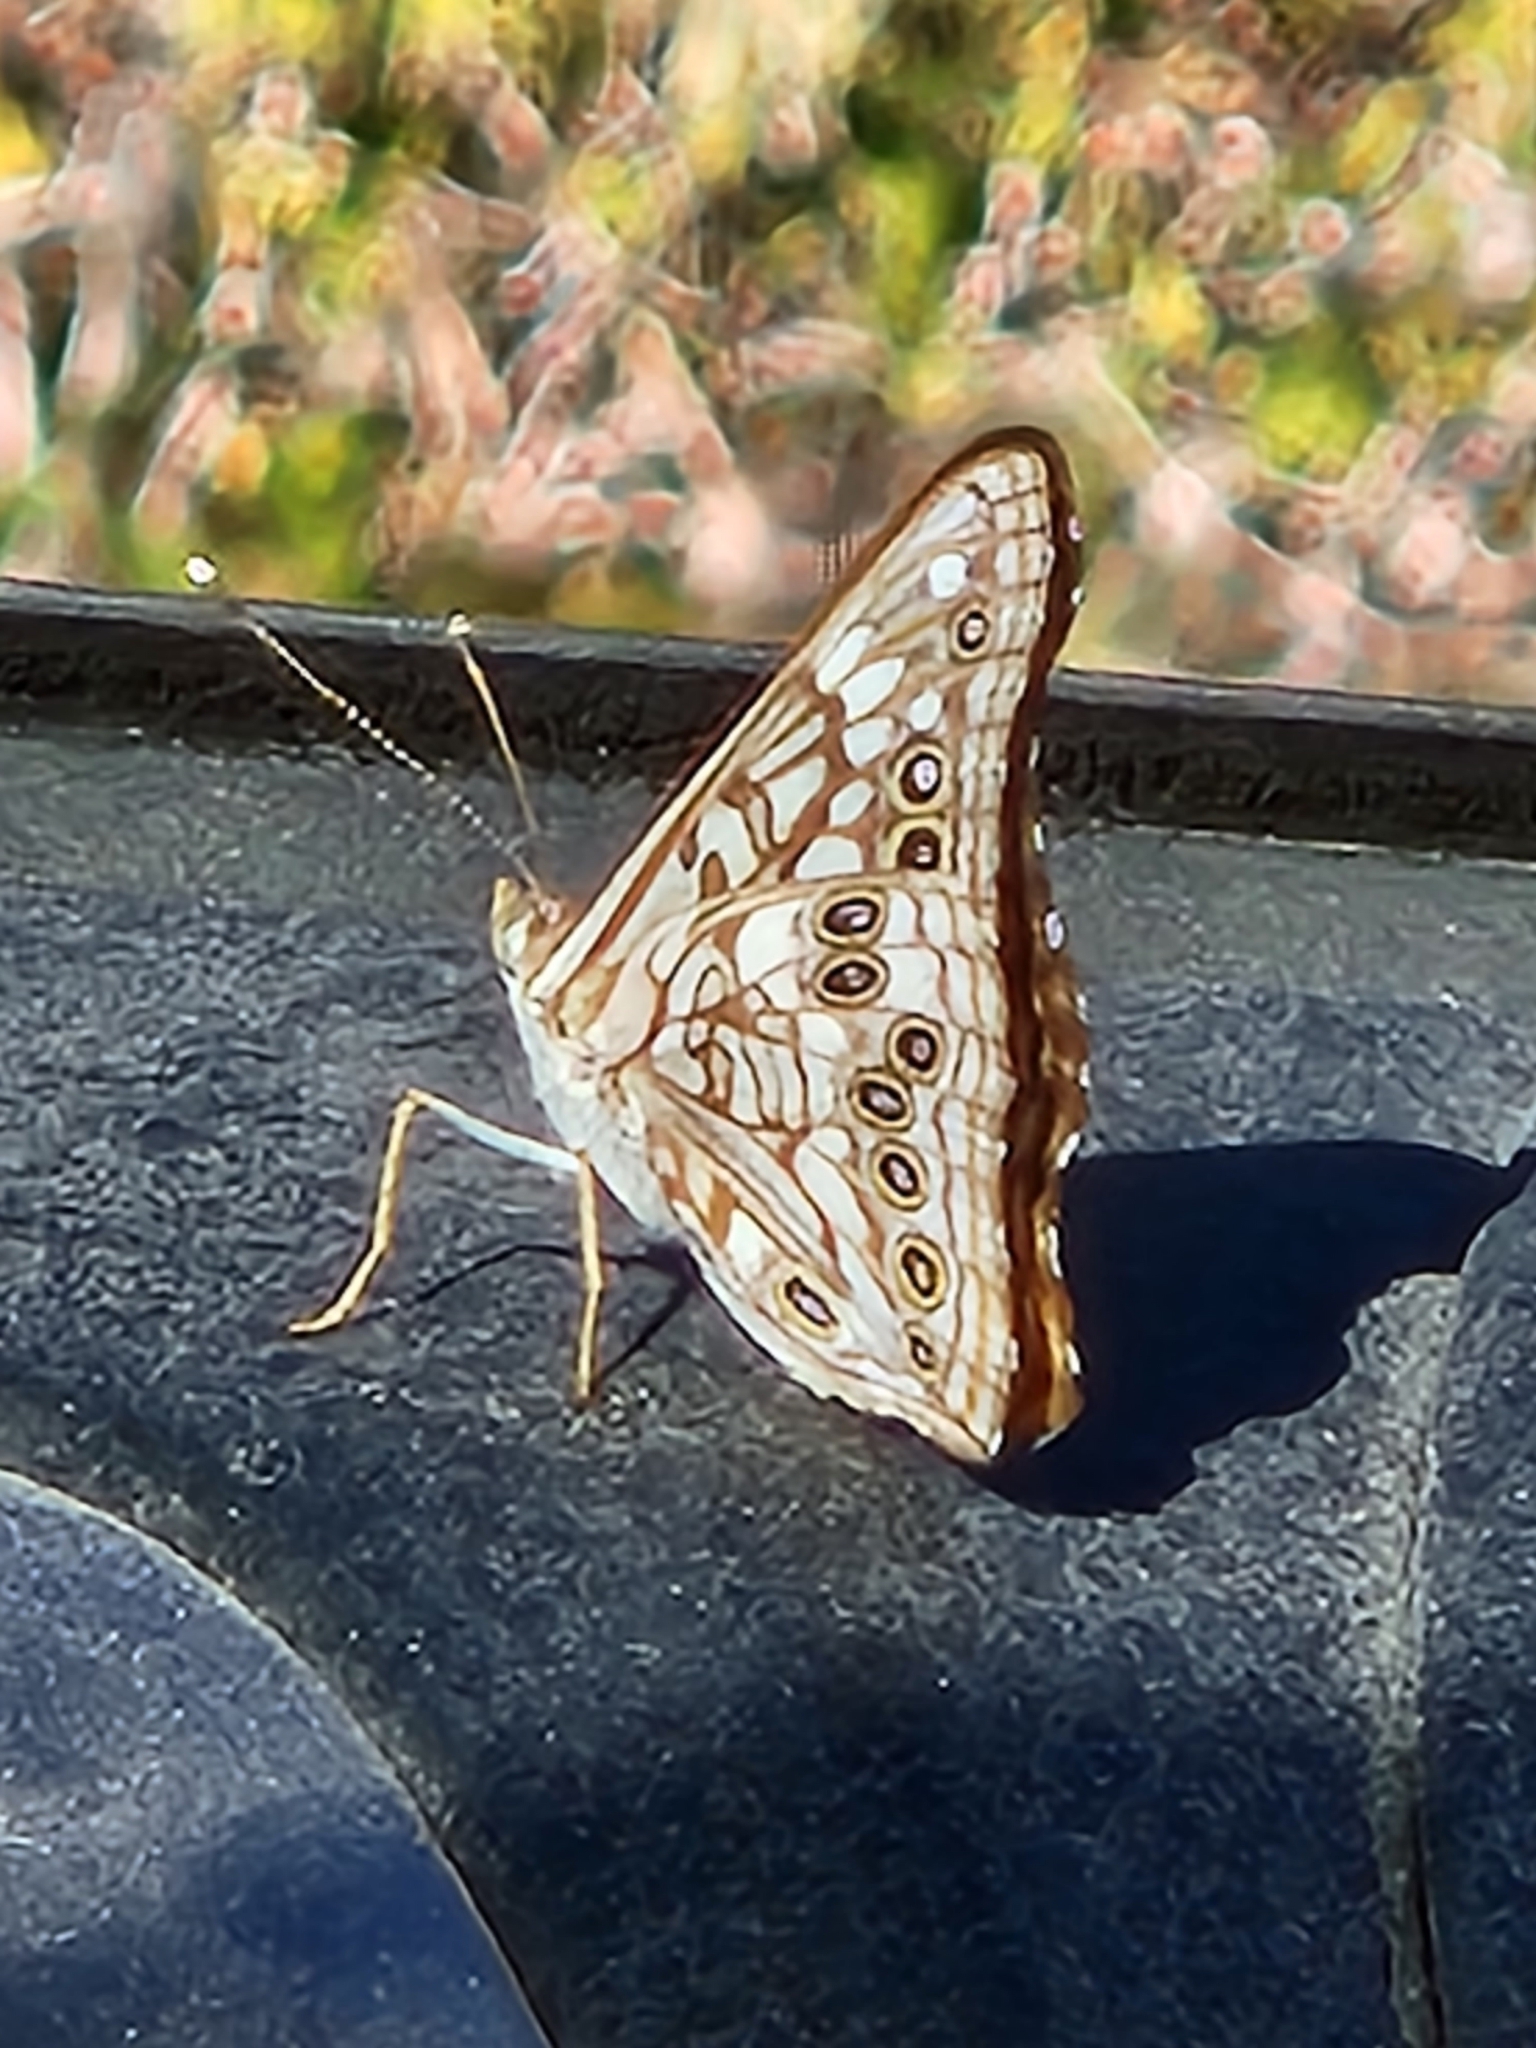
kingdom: Animalia
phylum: Arthropoda
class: Insecta
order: Lepidoptera
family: Nymphalidae
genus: Asterocampa
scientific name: Asterocampa celtis
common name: Hackberry emperor
